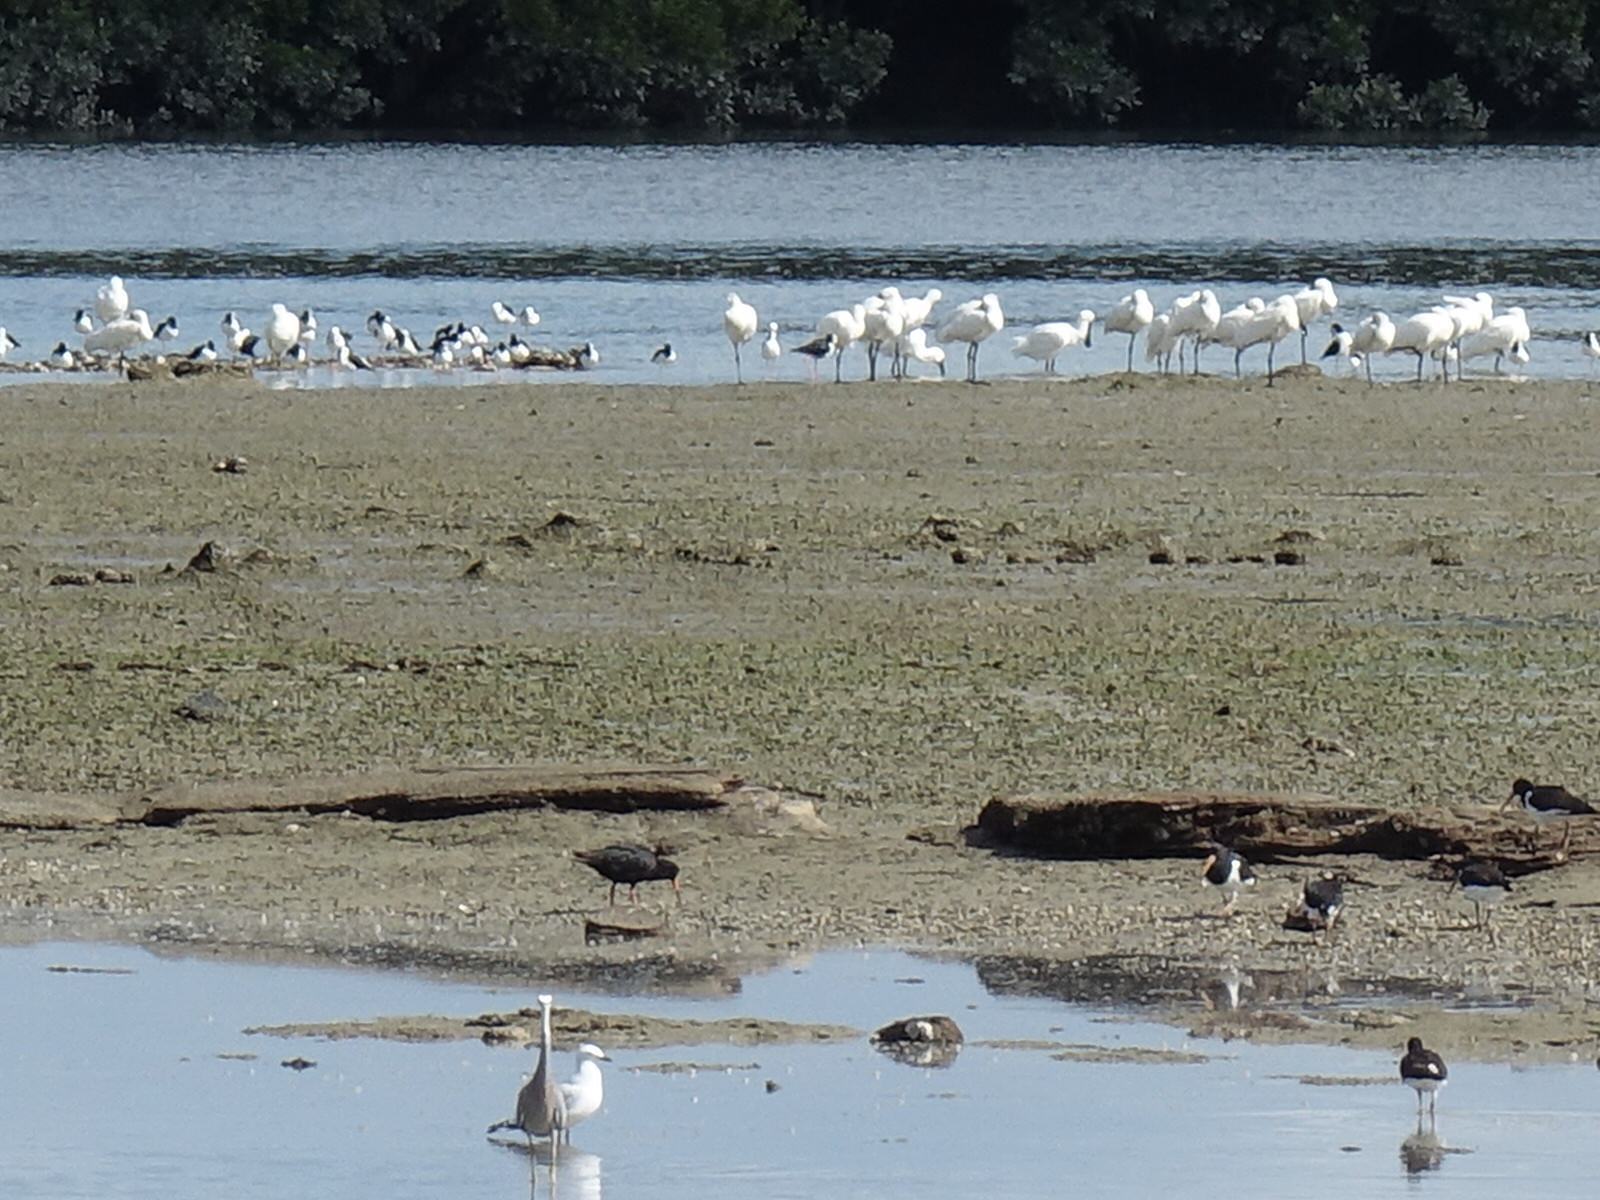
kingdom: Animalia
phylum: Chordata
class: Aves
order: Pelecaniformes
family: Threskiornithidae
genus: Platalea
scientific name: Platalea regia
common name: Royal spoonbill
